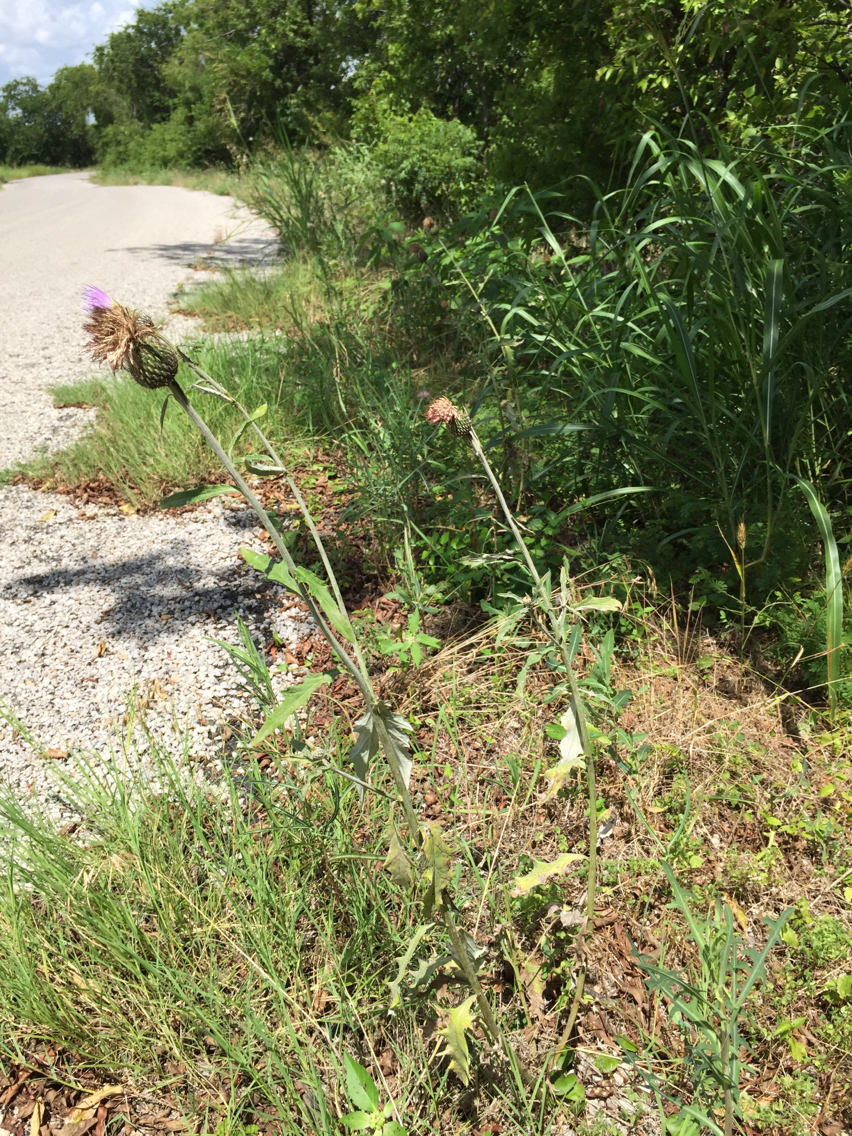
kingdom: Plantae
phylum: Tracheophyta
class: Magnoliopsida
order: Asterales
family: Asteraceae
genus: Cirsium
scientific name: Cirsium texanum
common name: Texas purple thistle
